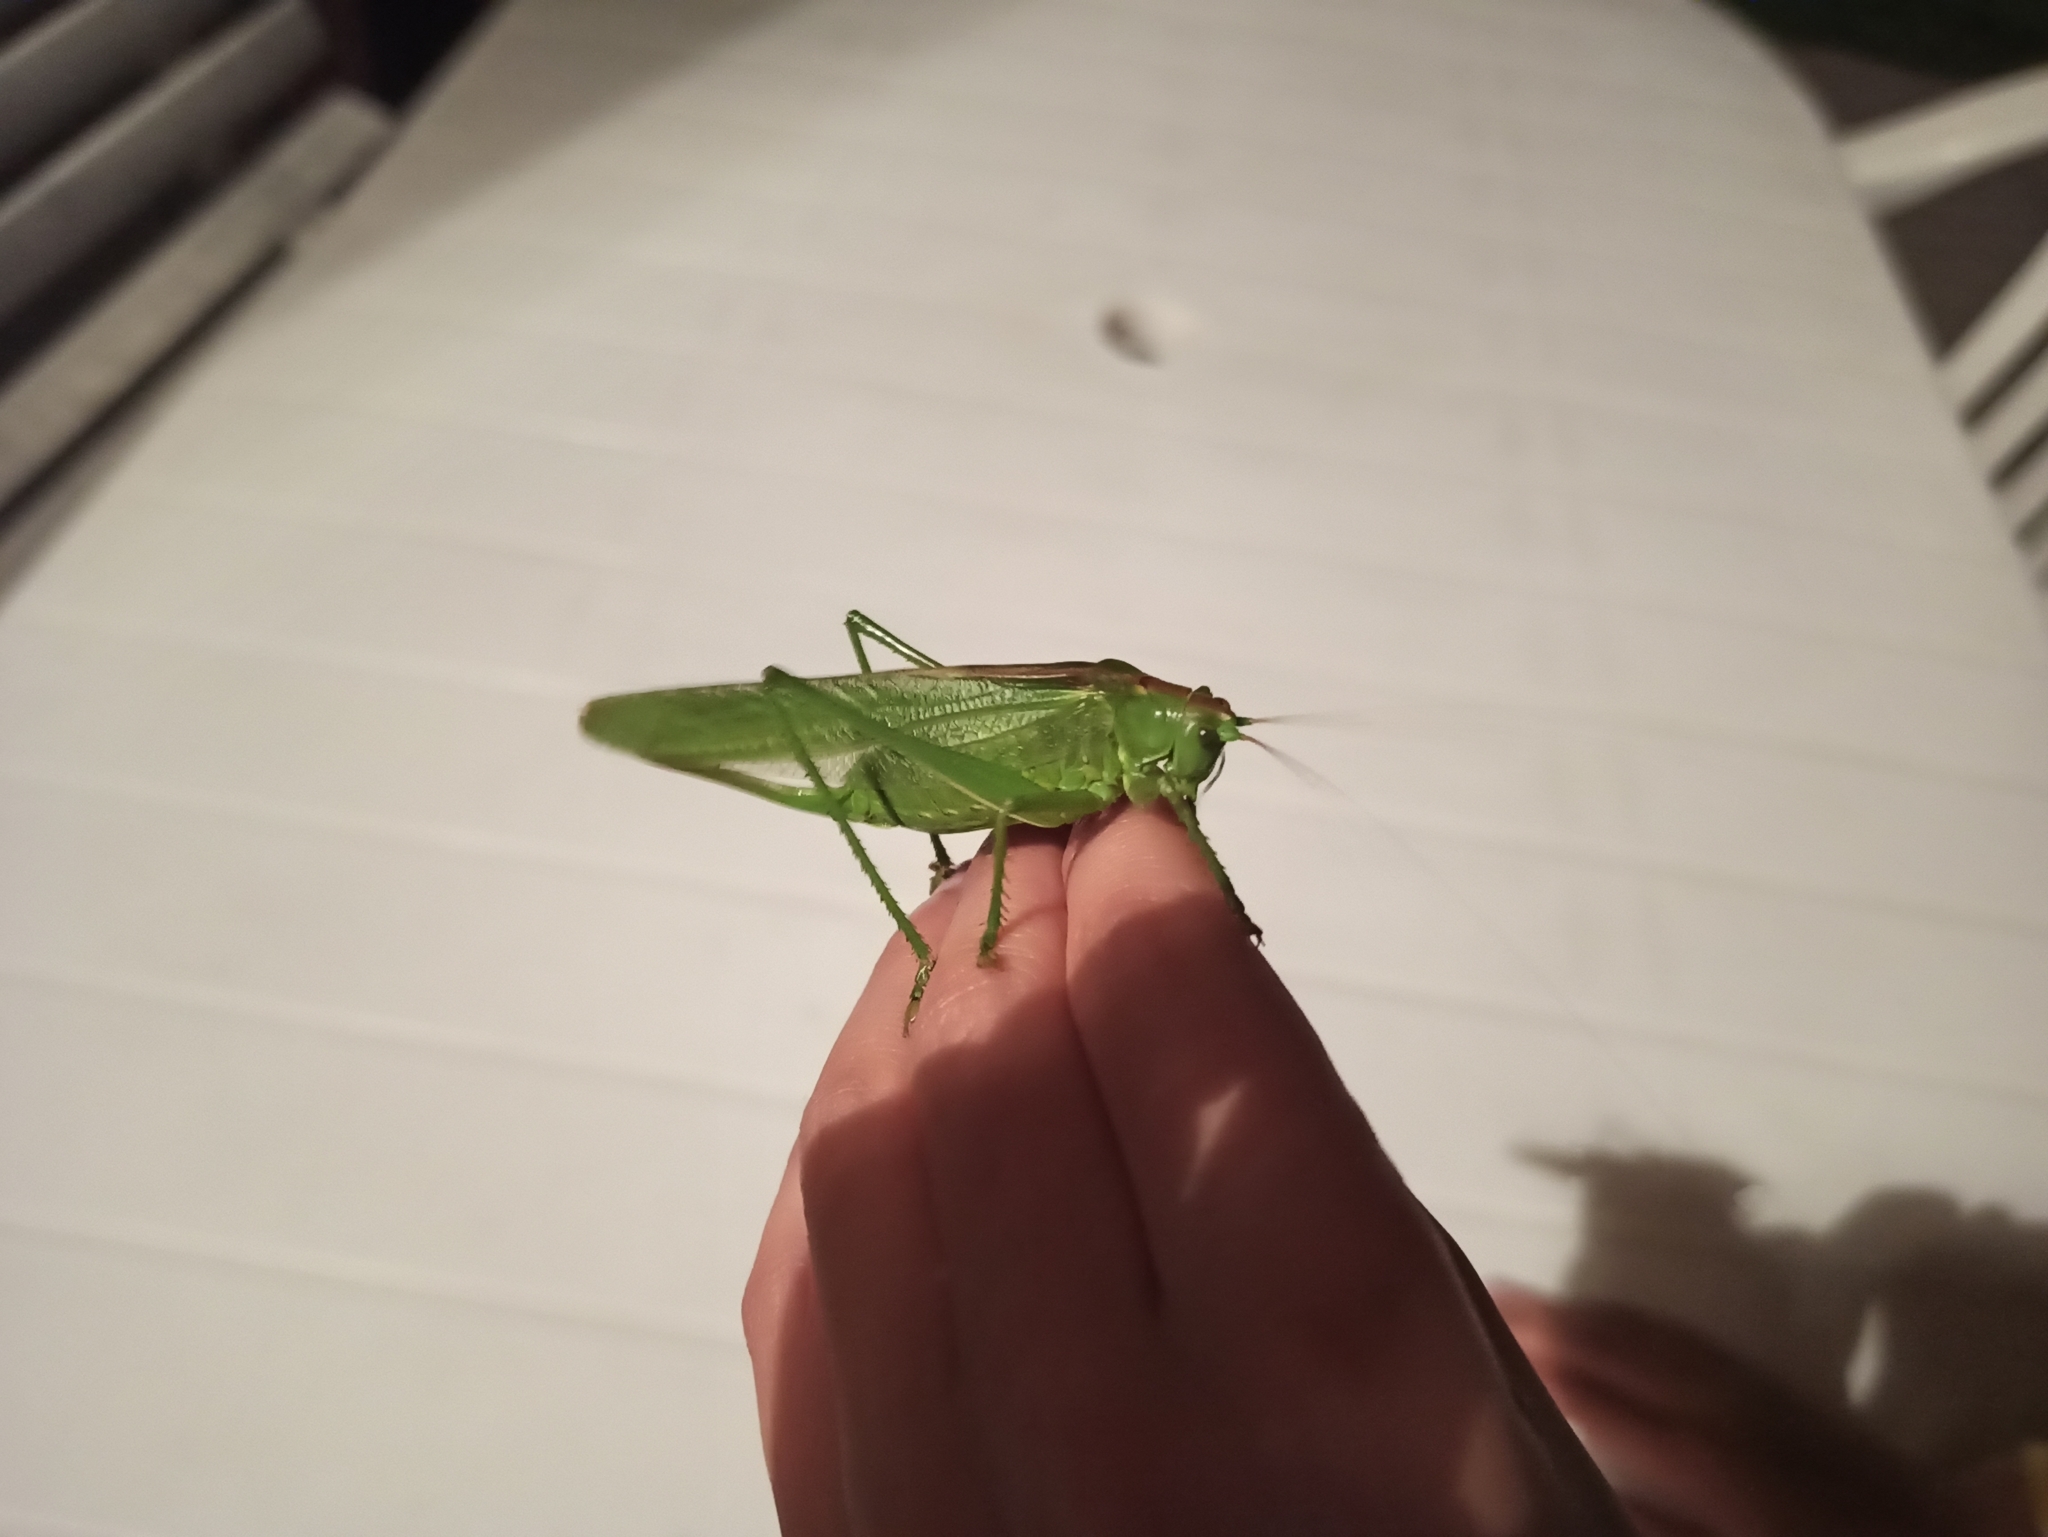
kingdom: Animalia
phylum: Arthropoda
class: Insecta
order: Orthoptera
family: Tettigoniidae
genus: Tettigonia
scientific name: Tettigonia viridissima
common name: Great green bush-cricket
